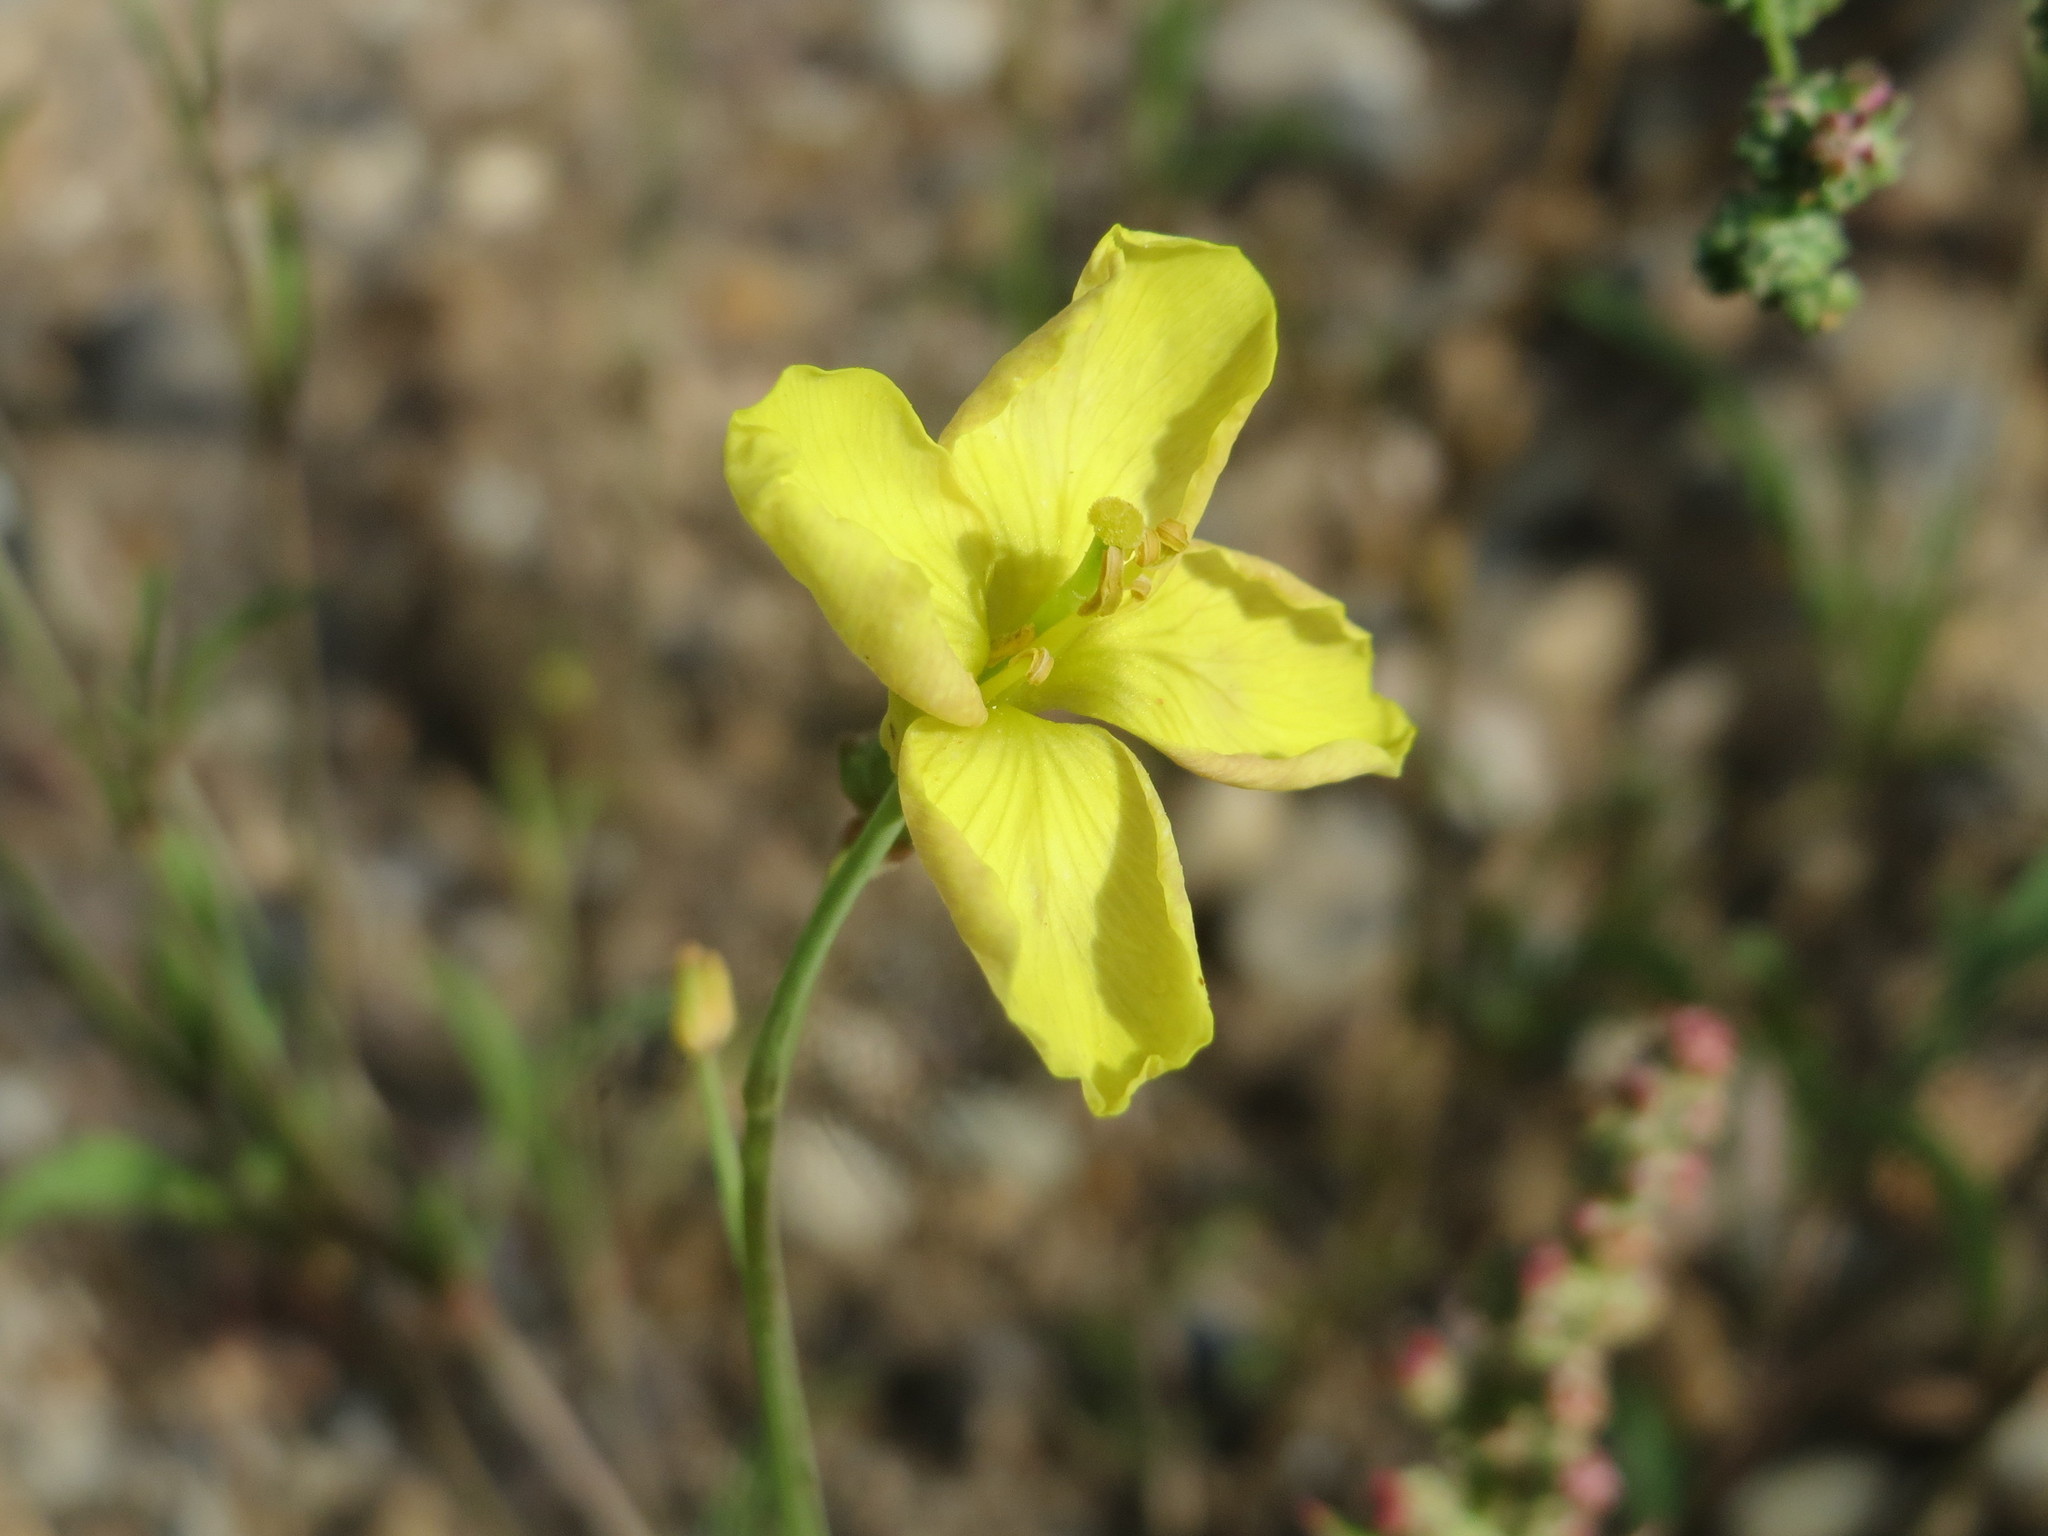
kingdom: Plantae
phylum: Tracheophyta
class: Magnoliopsida
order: Brassicales
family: Brassicaceae
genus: Diplotaxis
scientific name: Diplotaxis tenuifolia
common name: Perennial wall-rocket
